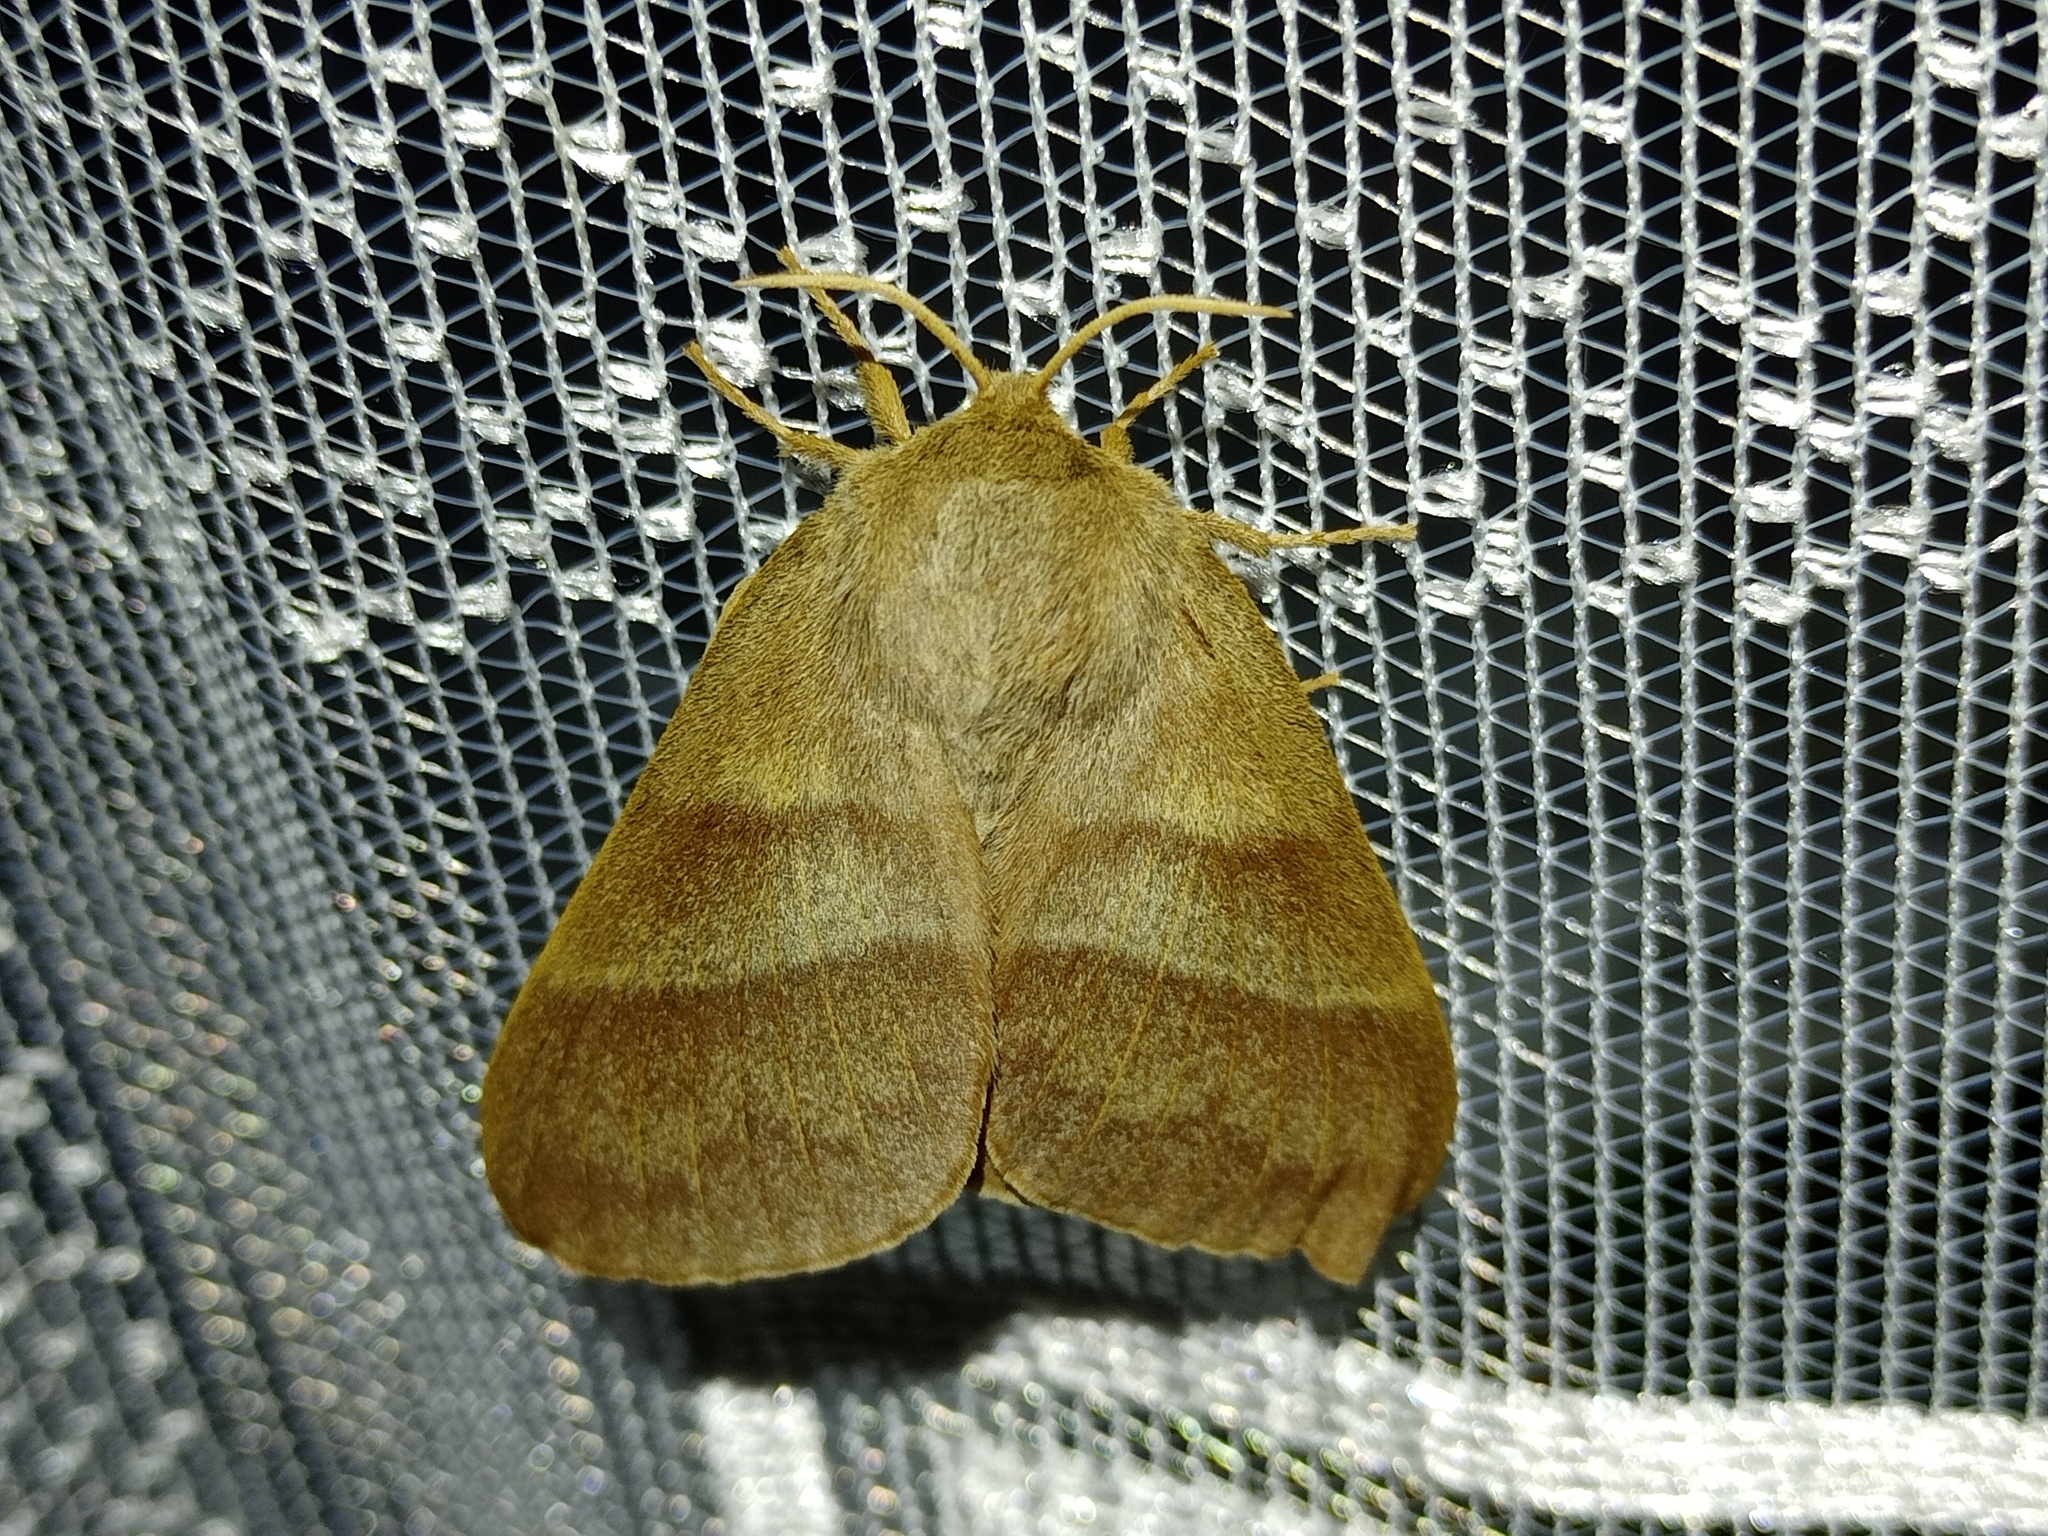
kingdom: Animalia
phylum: Arthropoda
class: Insecta
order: Lepidoptera
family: Lasiocampidae
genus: Macrothylacia
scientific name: Macrothylacia rubi
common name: Fox moth
